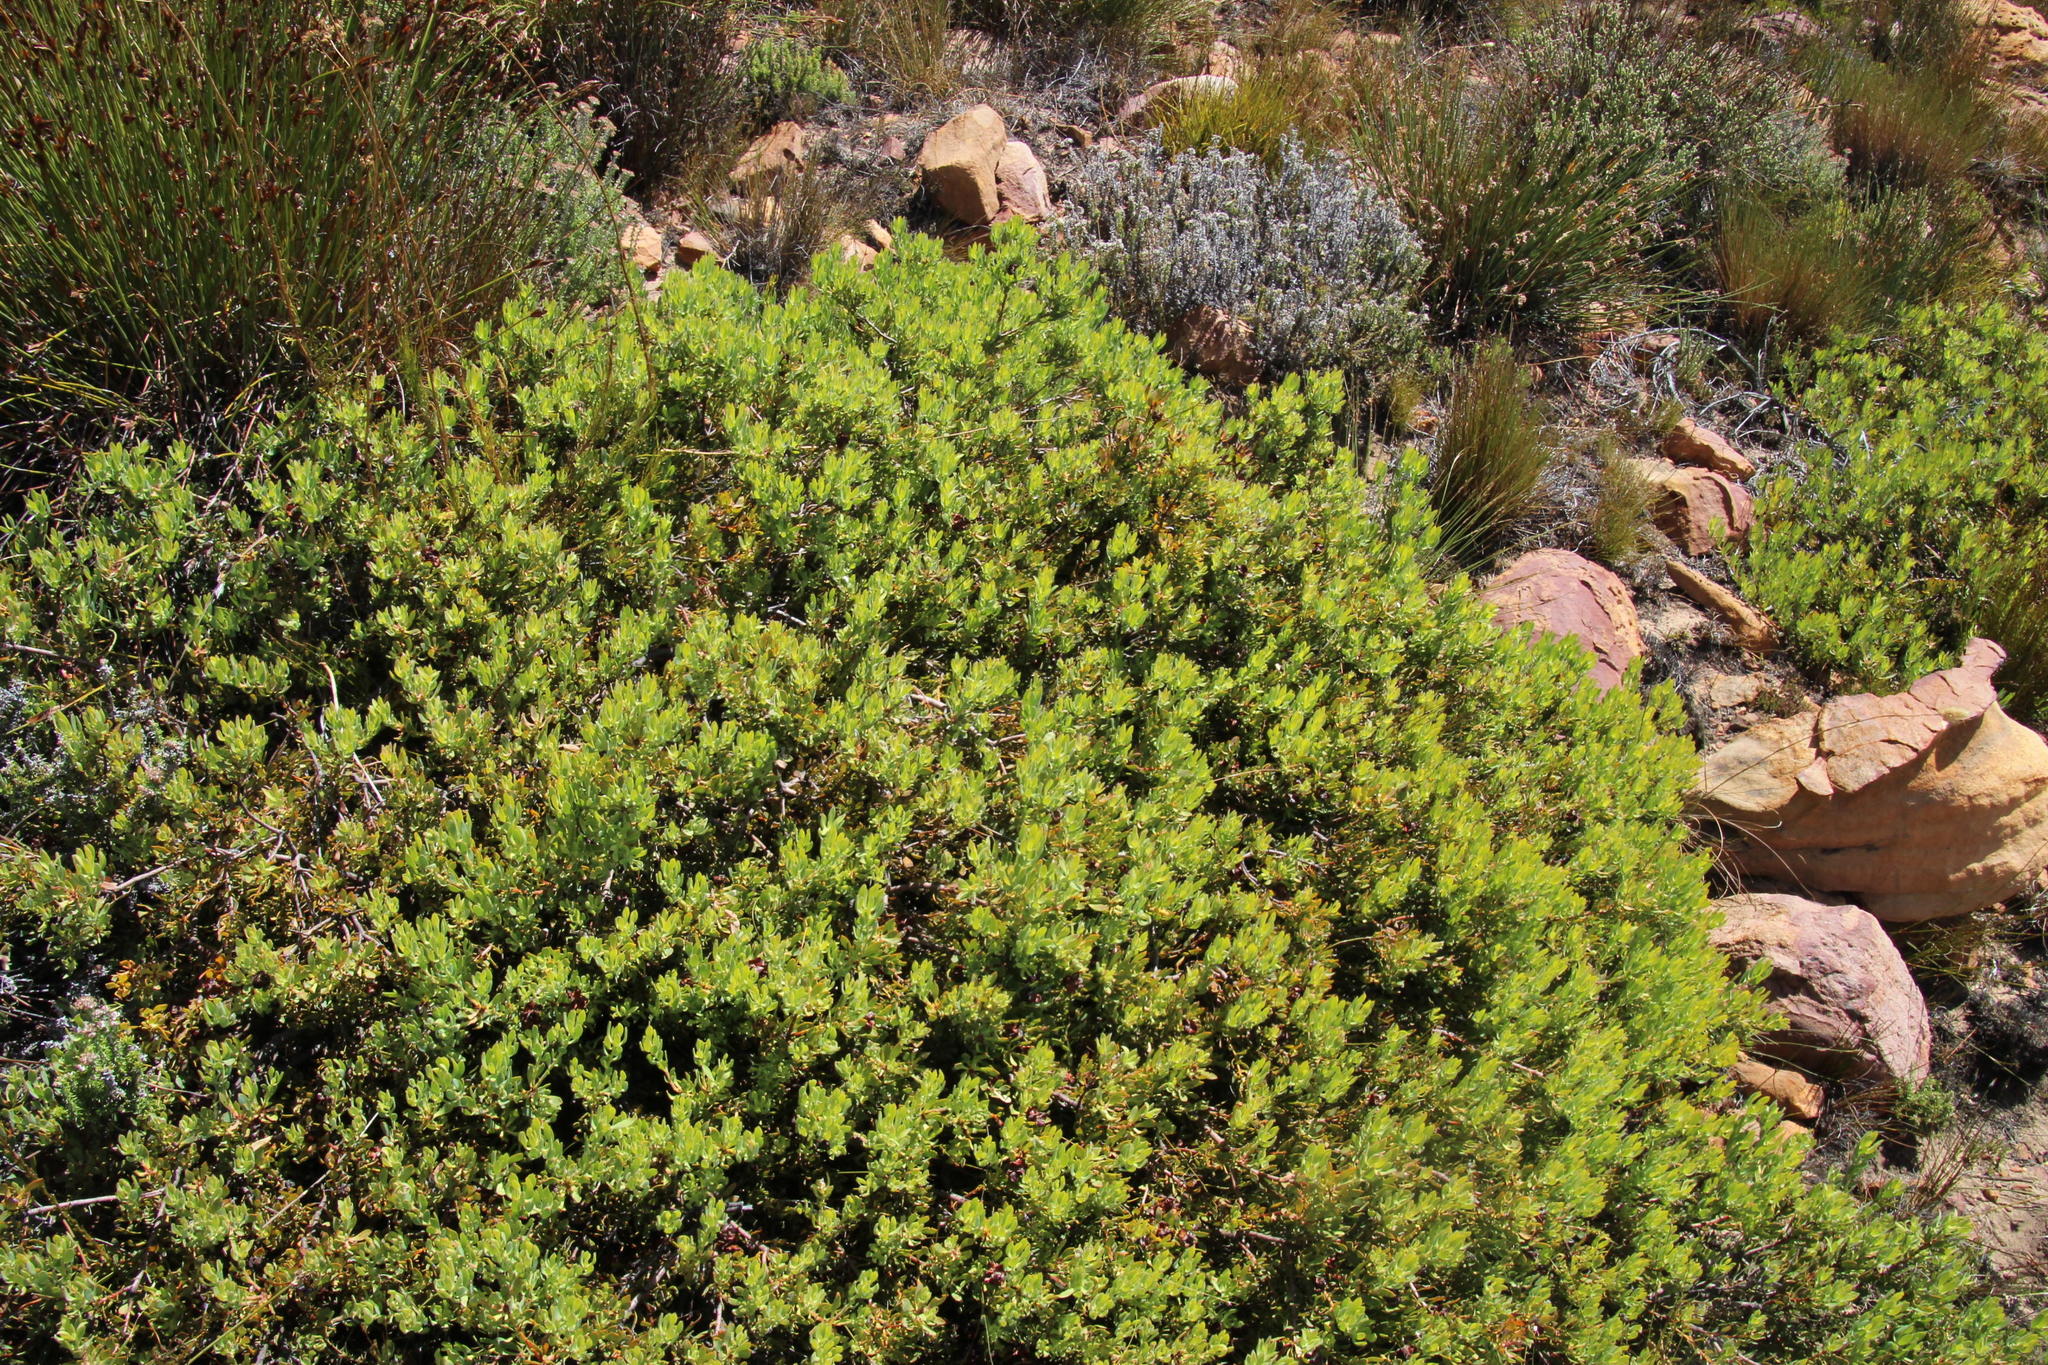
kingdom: Plantae
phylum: Tracheophyta
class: Magnoliopsida
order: Proteales
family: Proteaceae
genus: Leucadendron
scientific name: Leucadendron glaberrimum
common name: Common oily conebush
